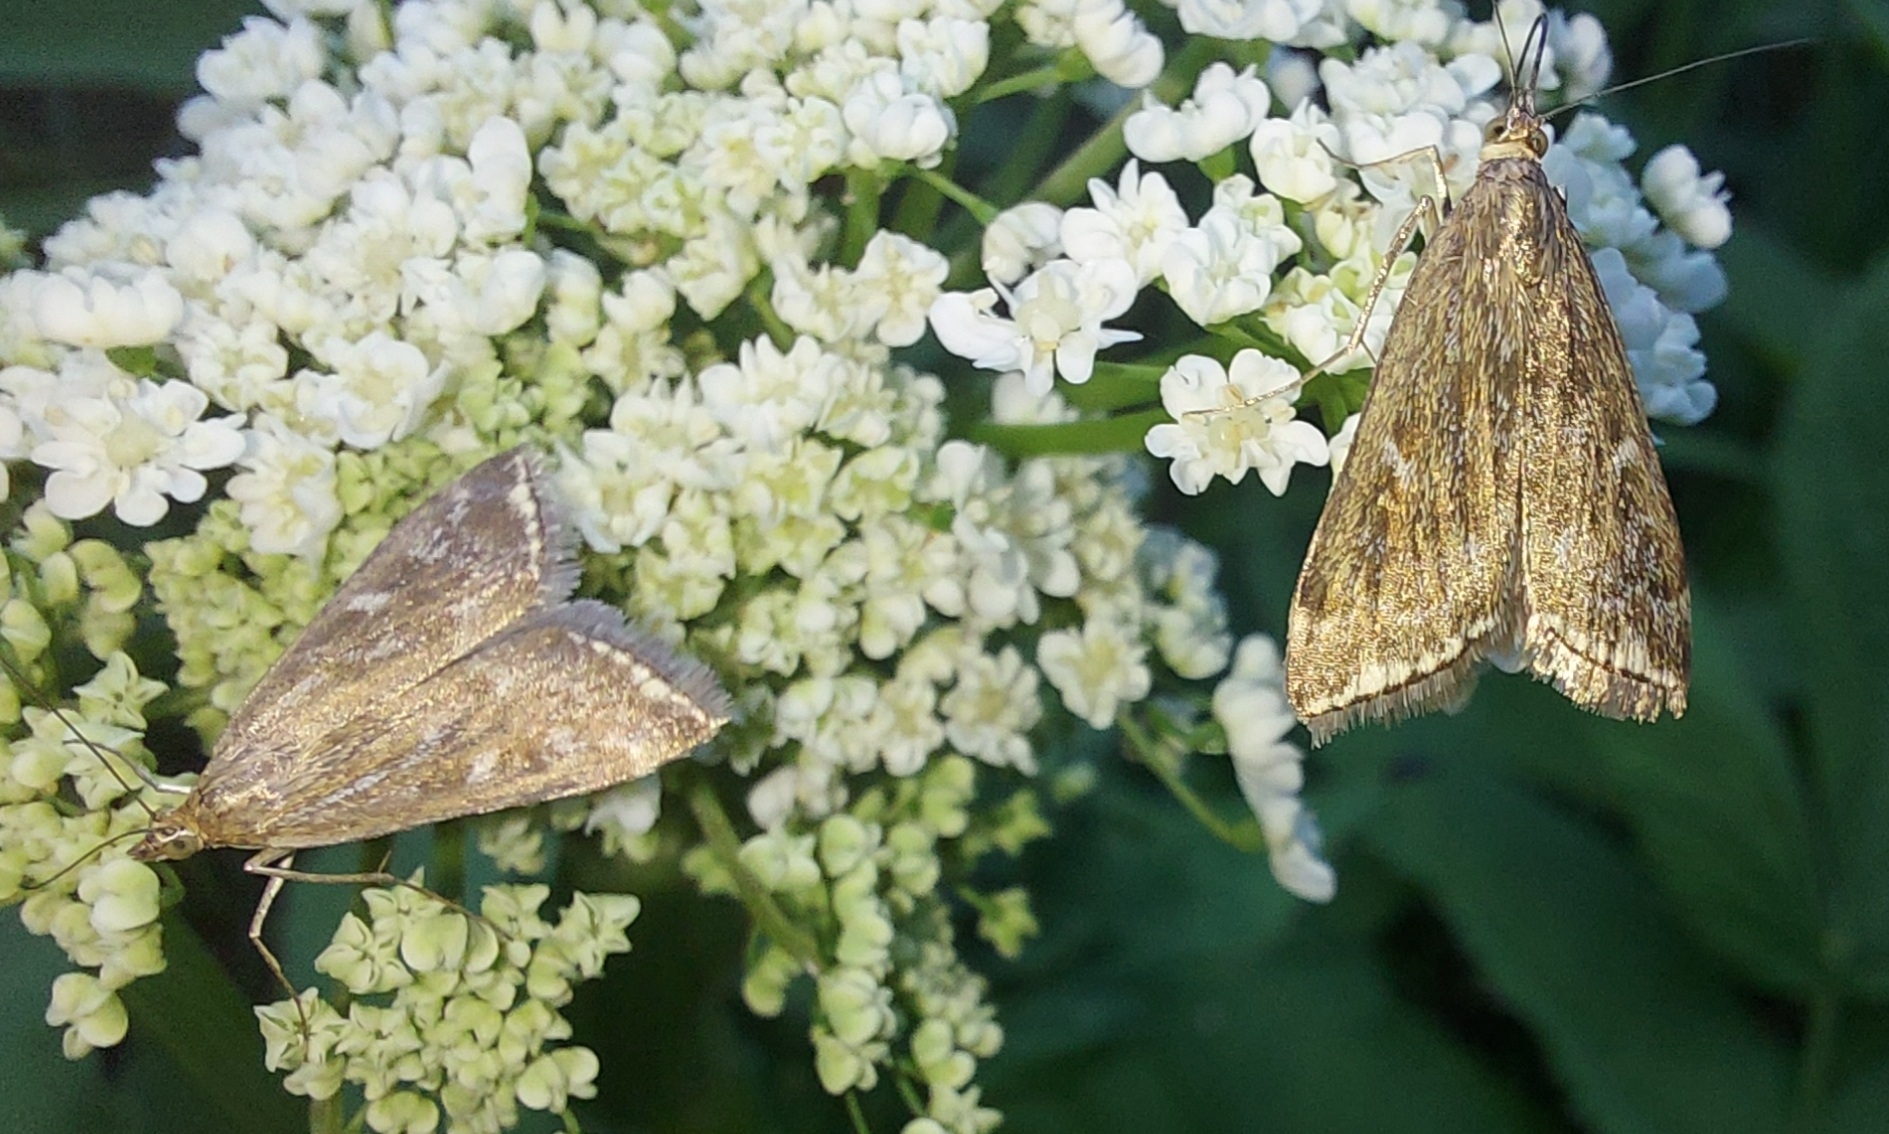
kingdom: Animalia
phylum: Arthropoda
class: Insecta
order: Lepidoptera
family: Crambidae
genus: Loxostege
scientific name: Loxostege sticticalis
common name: Crambid moth
